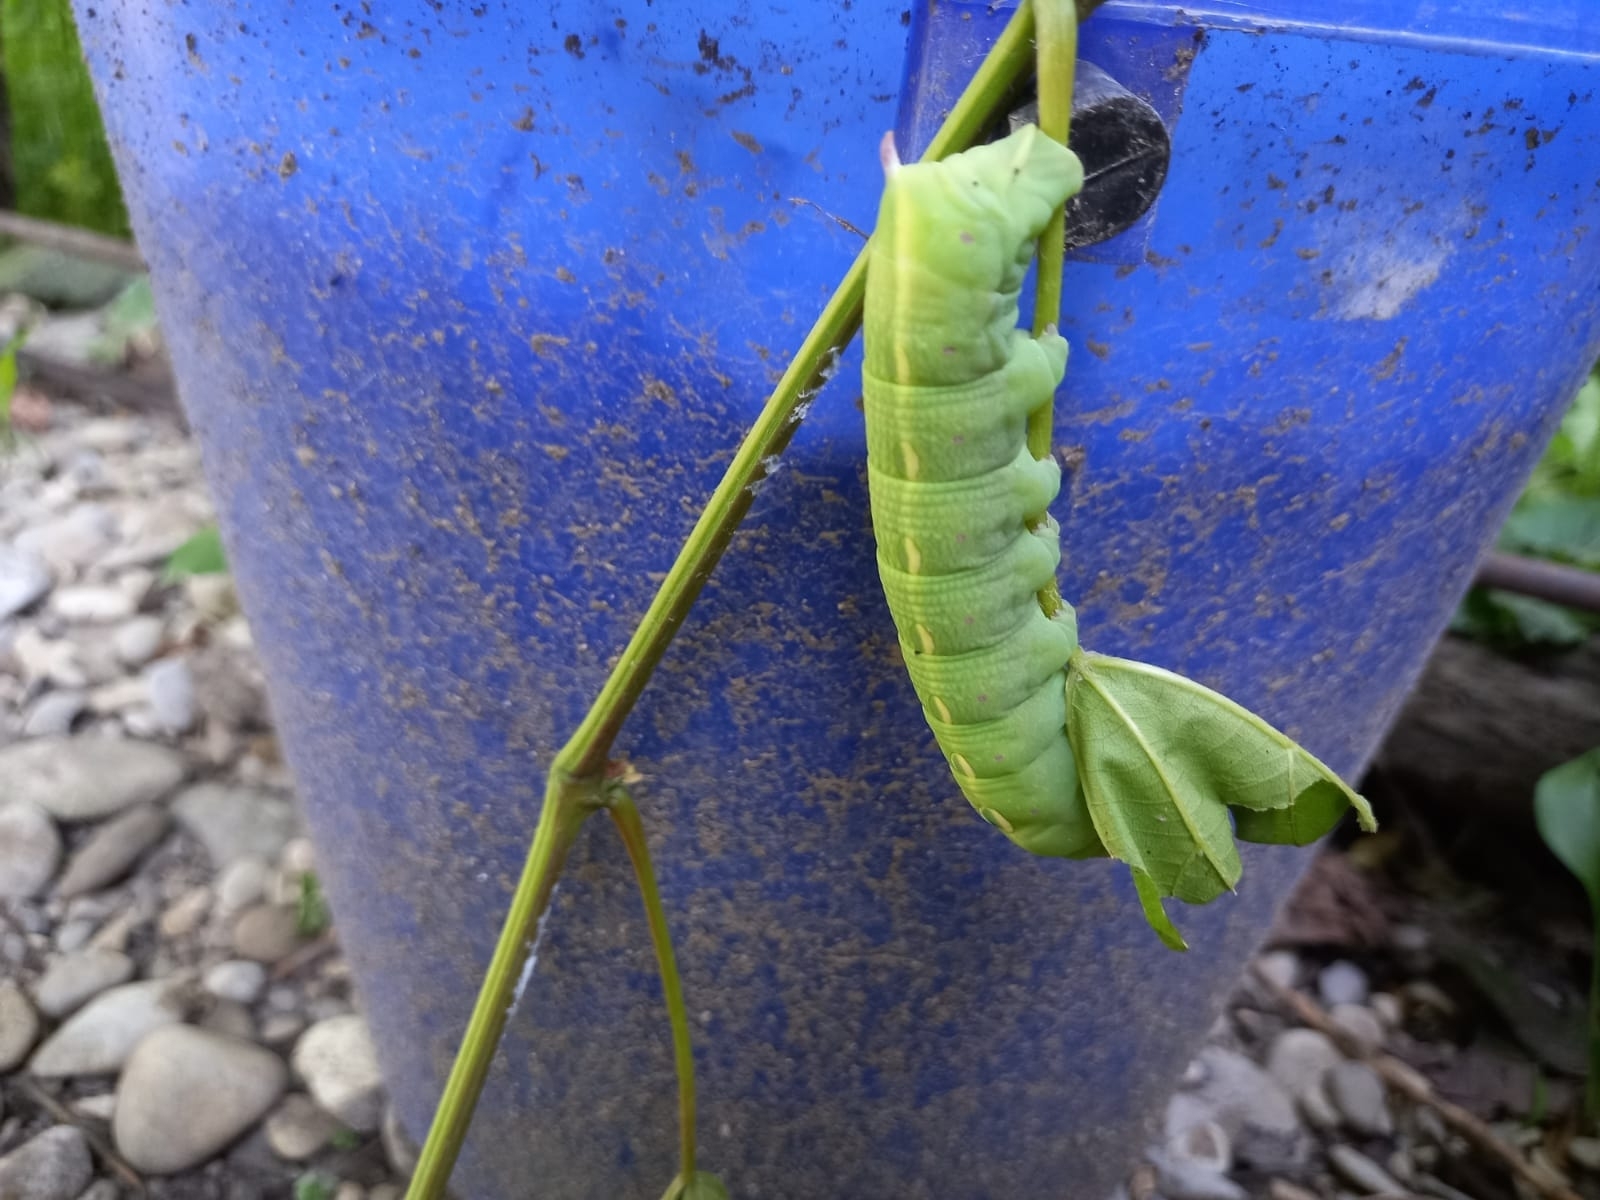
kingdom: Animalia
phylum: Arthropoda
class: Insecta
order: Lepidoptera
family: Sphingidae
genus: Theretra
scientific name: Theretra alecto
